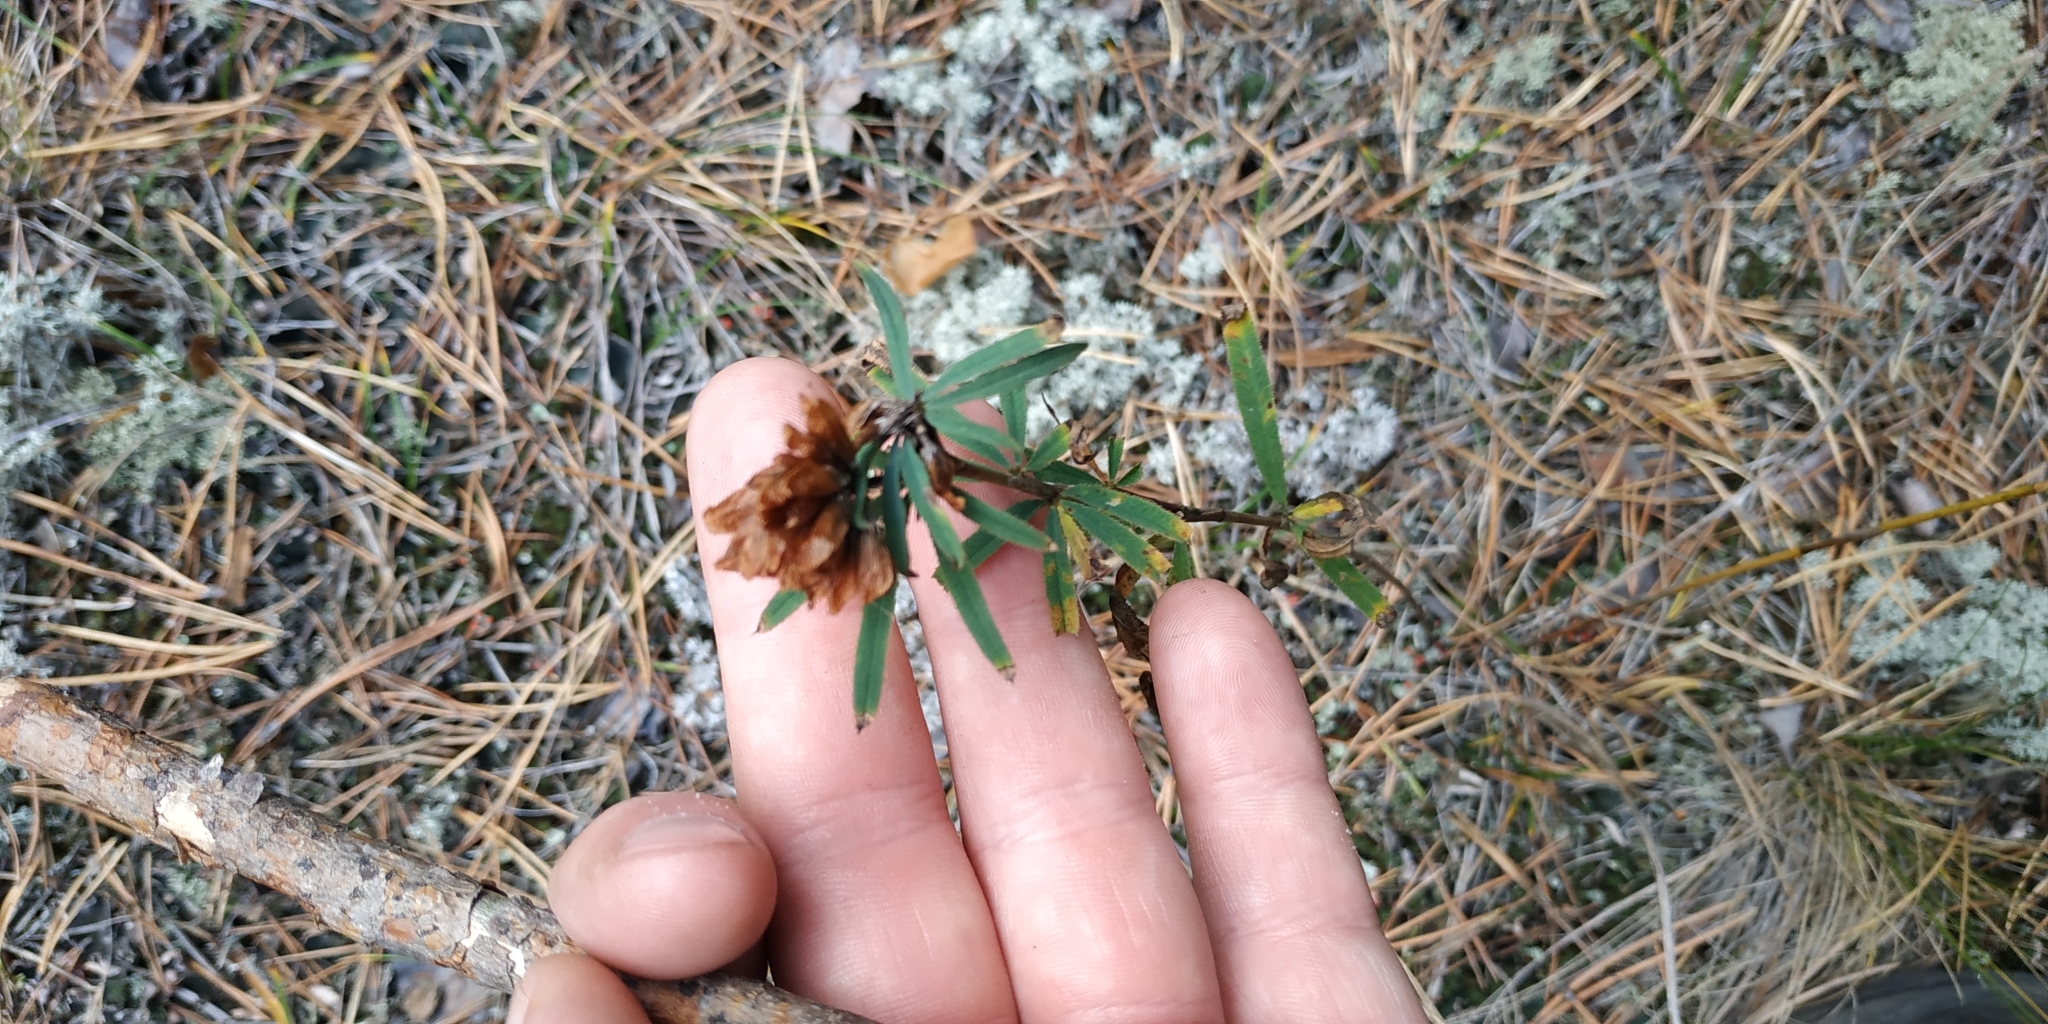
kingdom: Plantae
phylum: Tracheophyta
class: Magnoliopsida
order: Fabales
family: Fabaceae
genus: Trifolium
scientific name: Trifolium lupinaster
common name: Lupine clover
